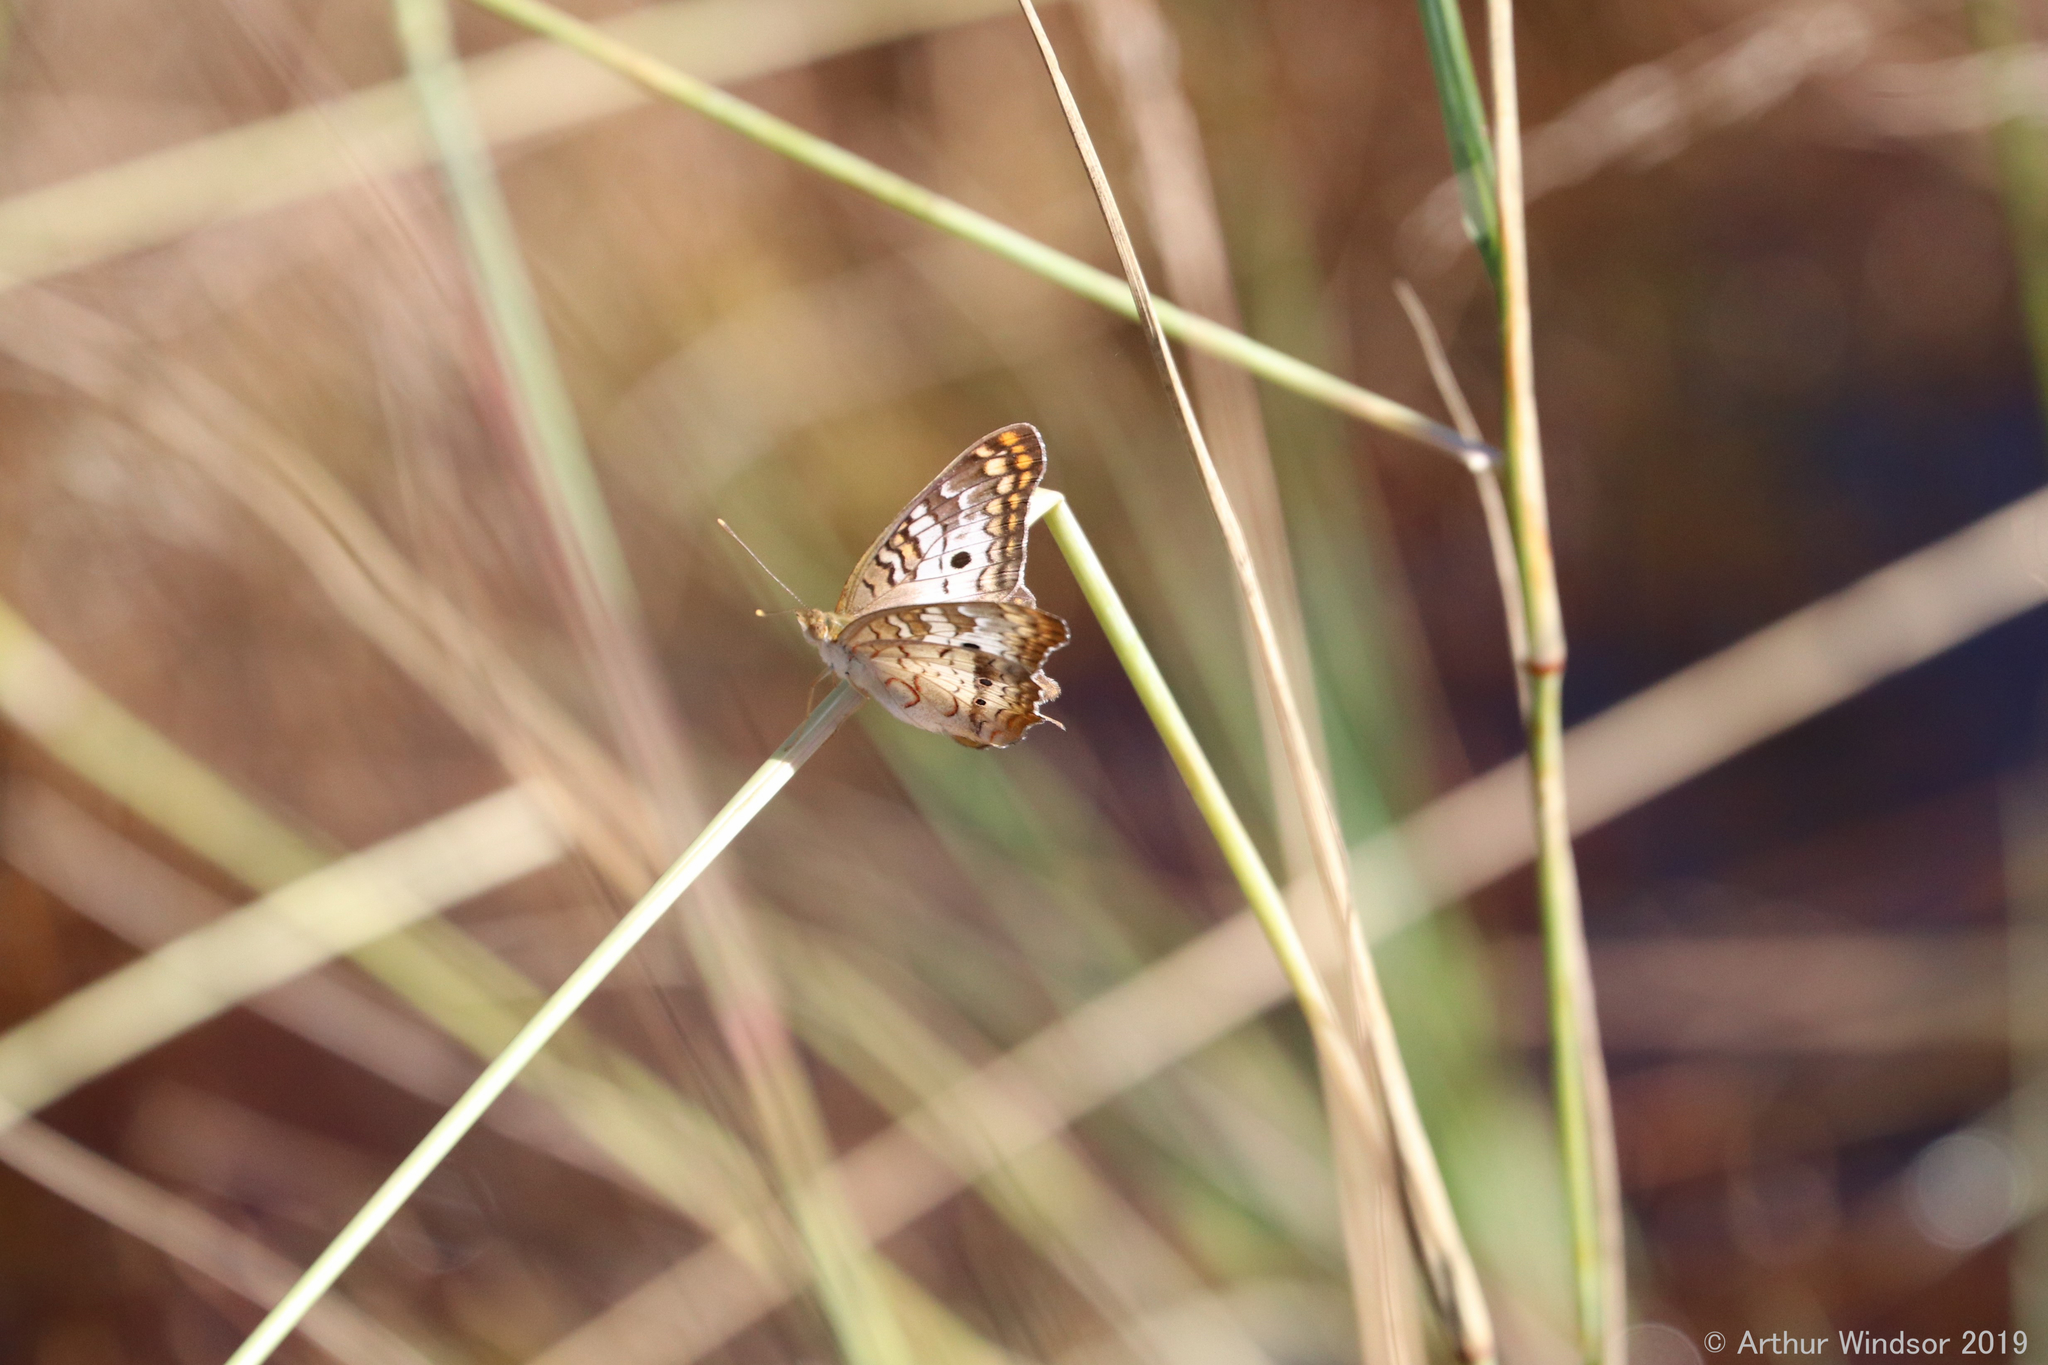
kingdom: Animalia
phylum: Arthropoda
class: Insecta
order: Lepidoptera
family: Nymphalidae
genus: Anartia
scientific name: Anartia jatrophae
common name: White peacock
